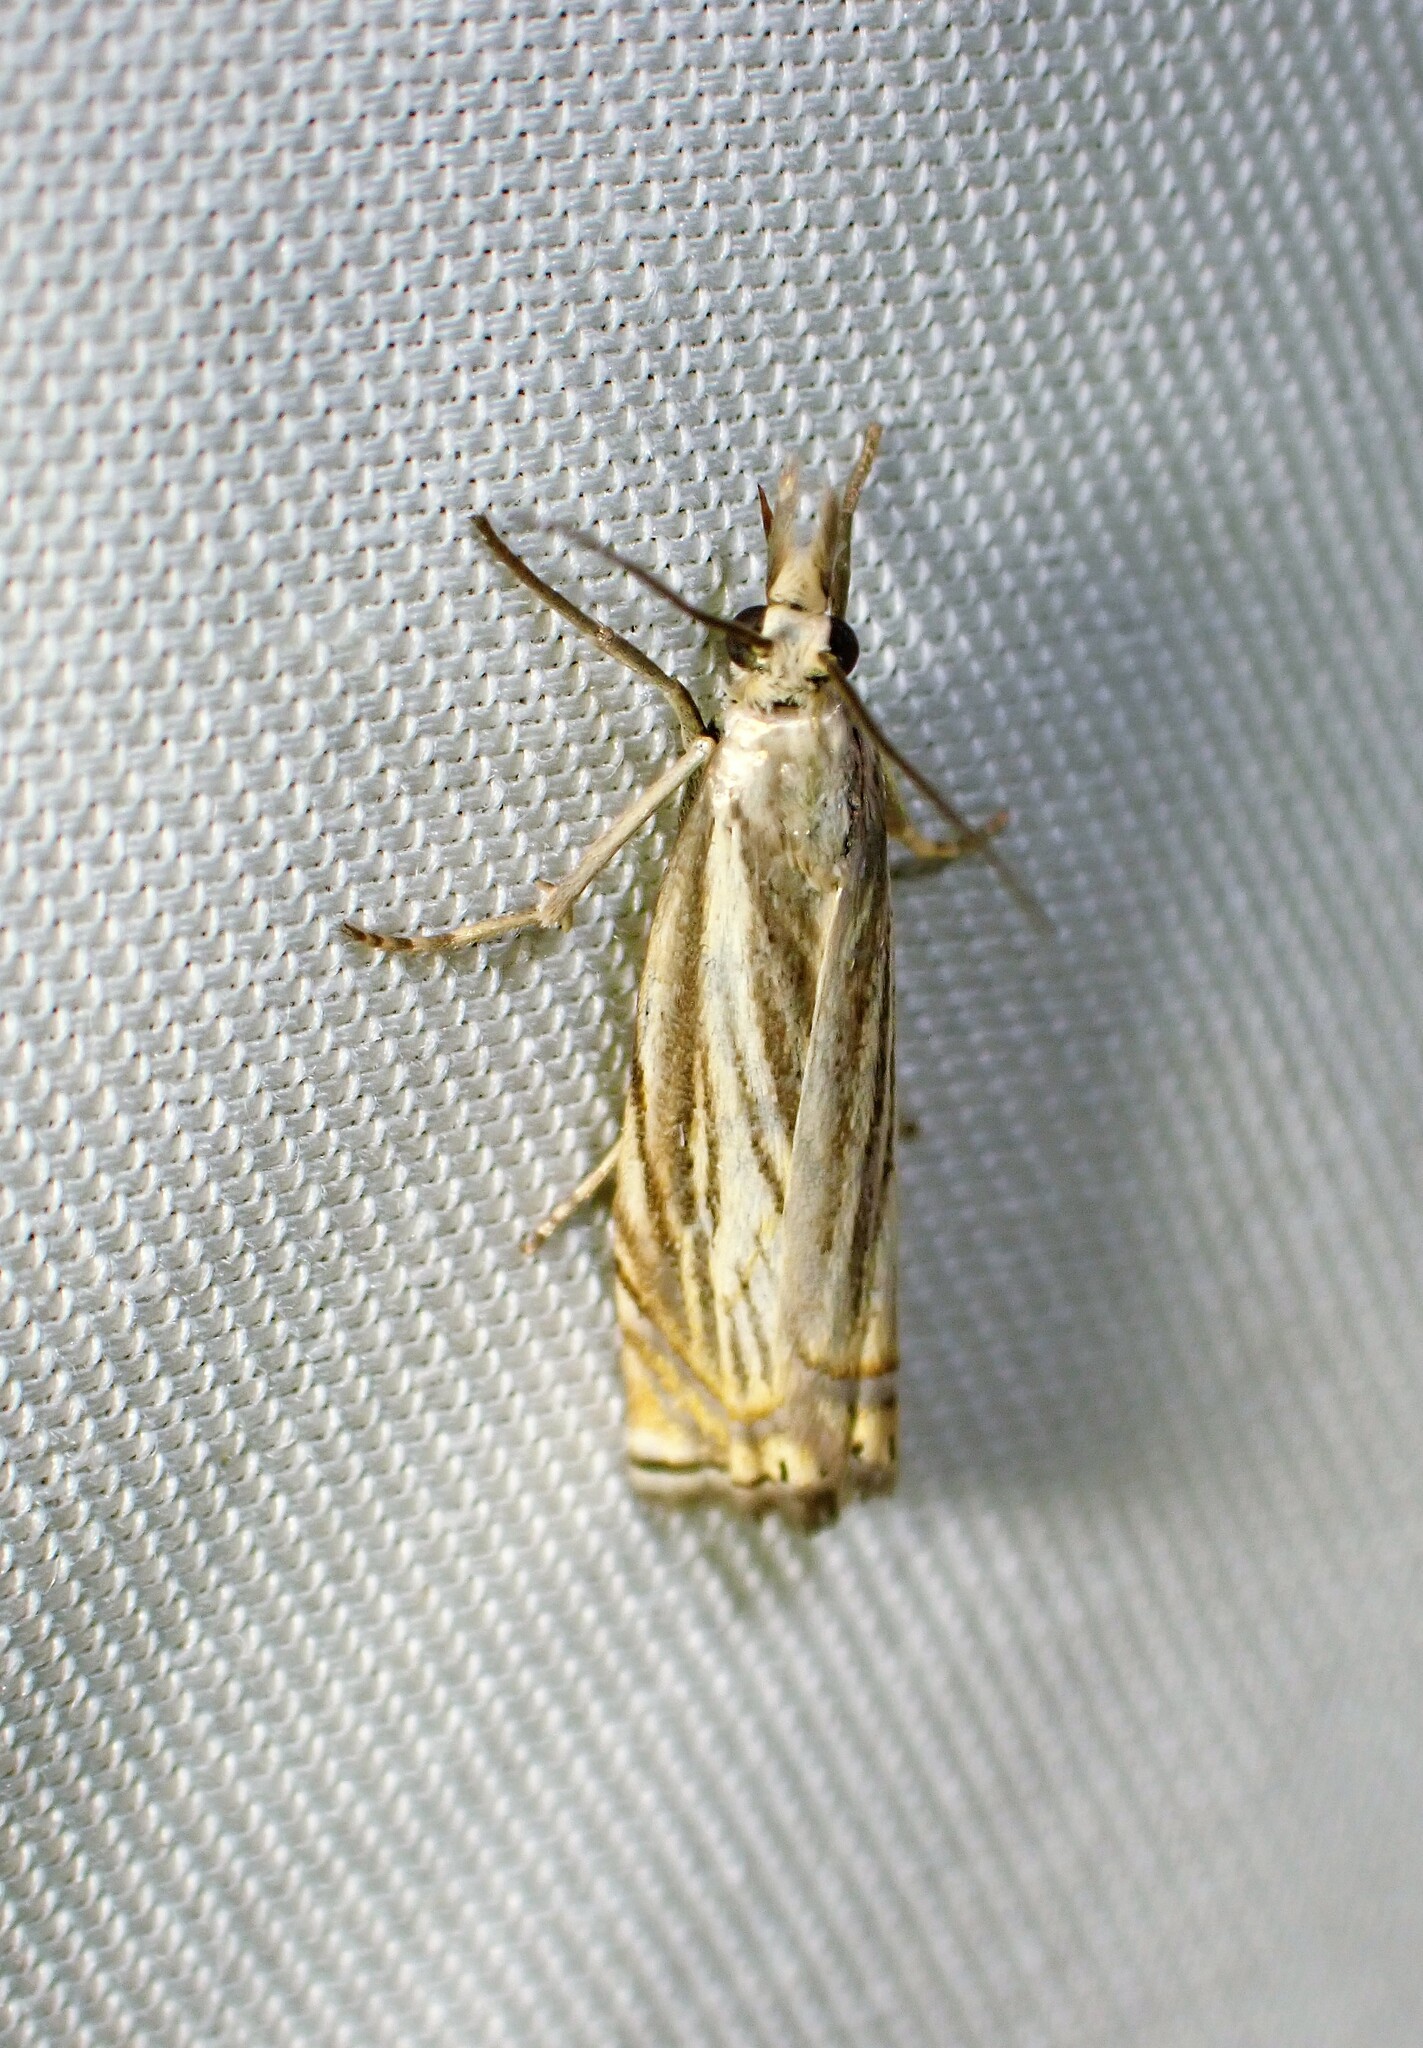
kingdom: Animalia
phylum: Arthropoda
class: Insecta
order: Lepidoptera
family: Crambidae
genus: Chrysoteuchia
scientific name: Chrysoteuchia topiarius
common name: Topiary grass-veneer
